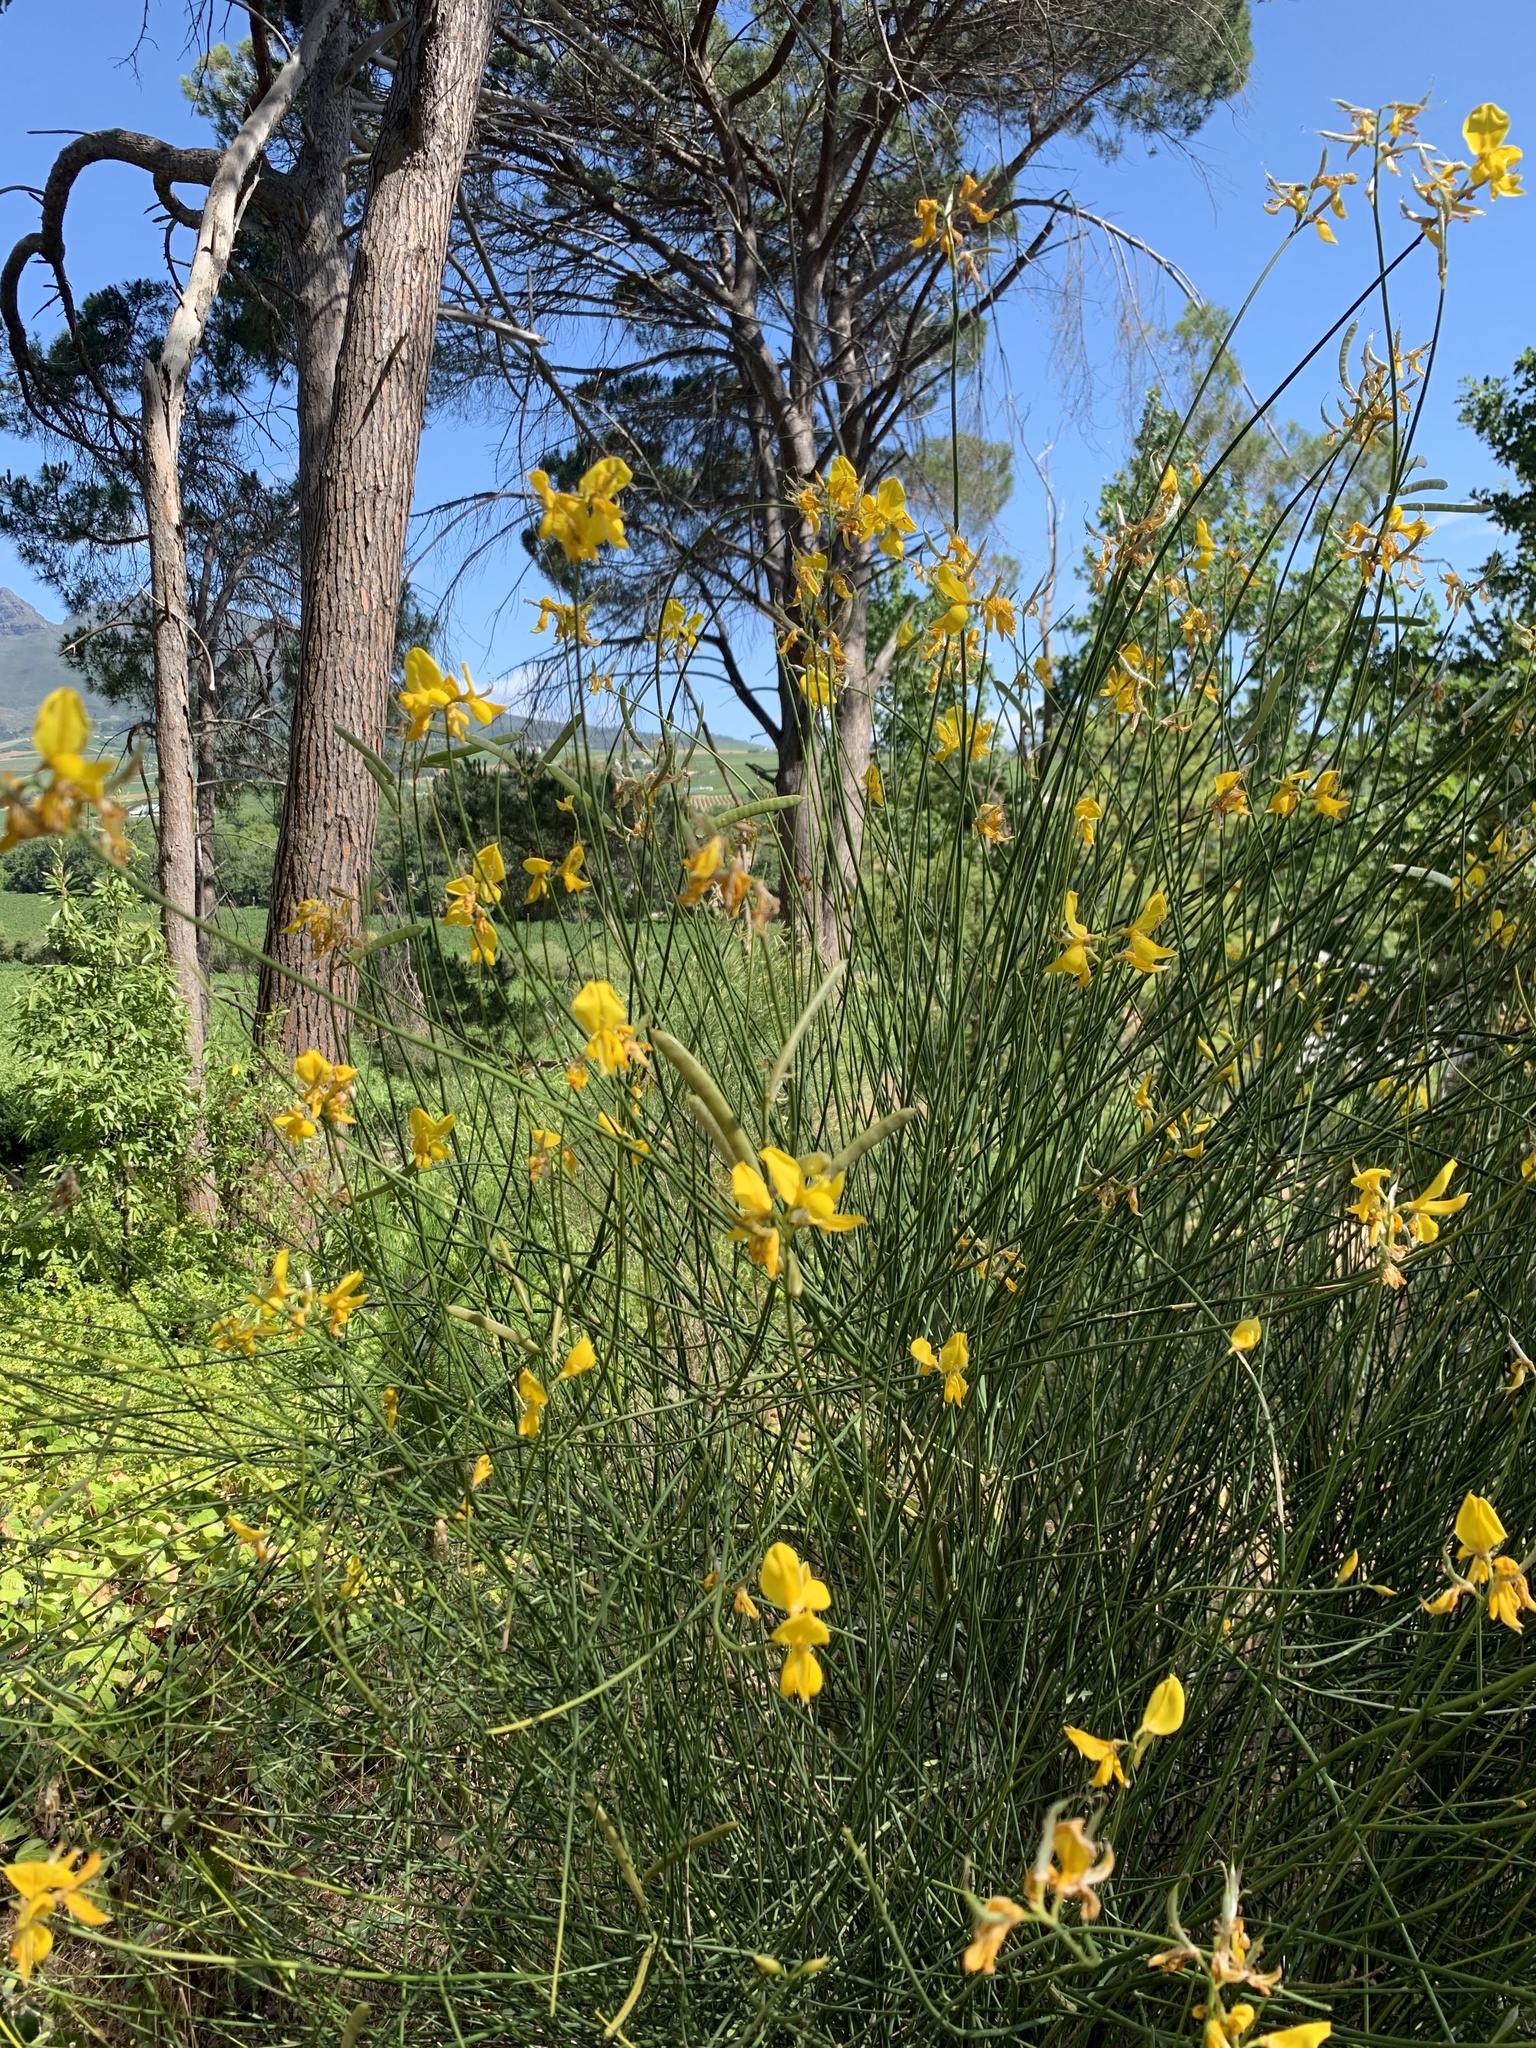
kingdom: Plantae
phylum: Tracheophyta
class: Magnoliopsida
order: Fabales
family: Fabaceae
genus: Spartium
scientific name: Spartium junceum
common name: Spanish broom
